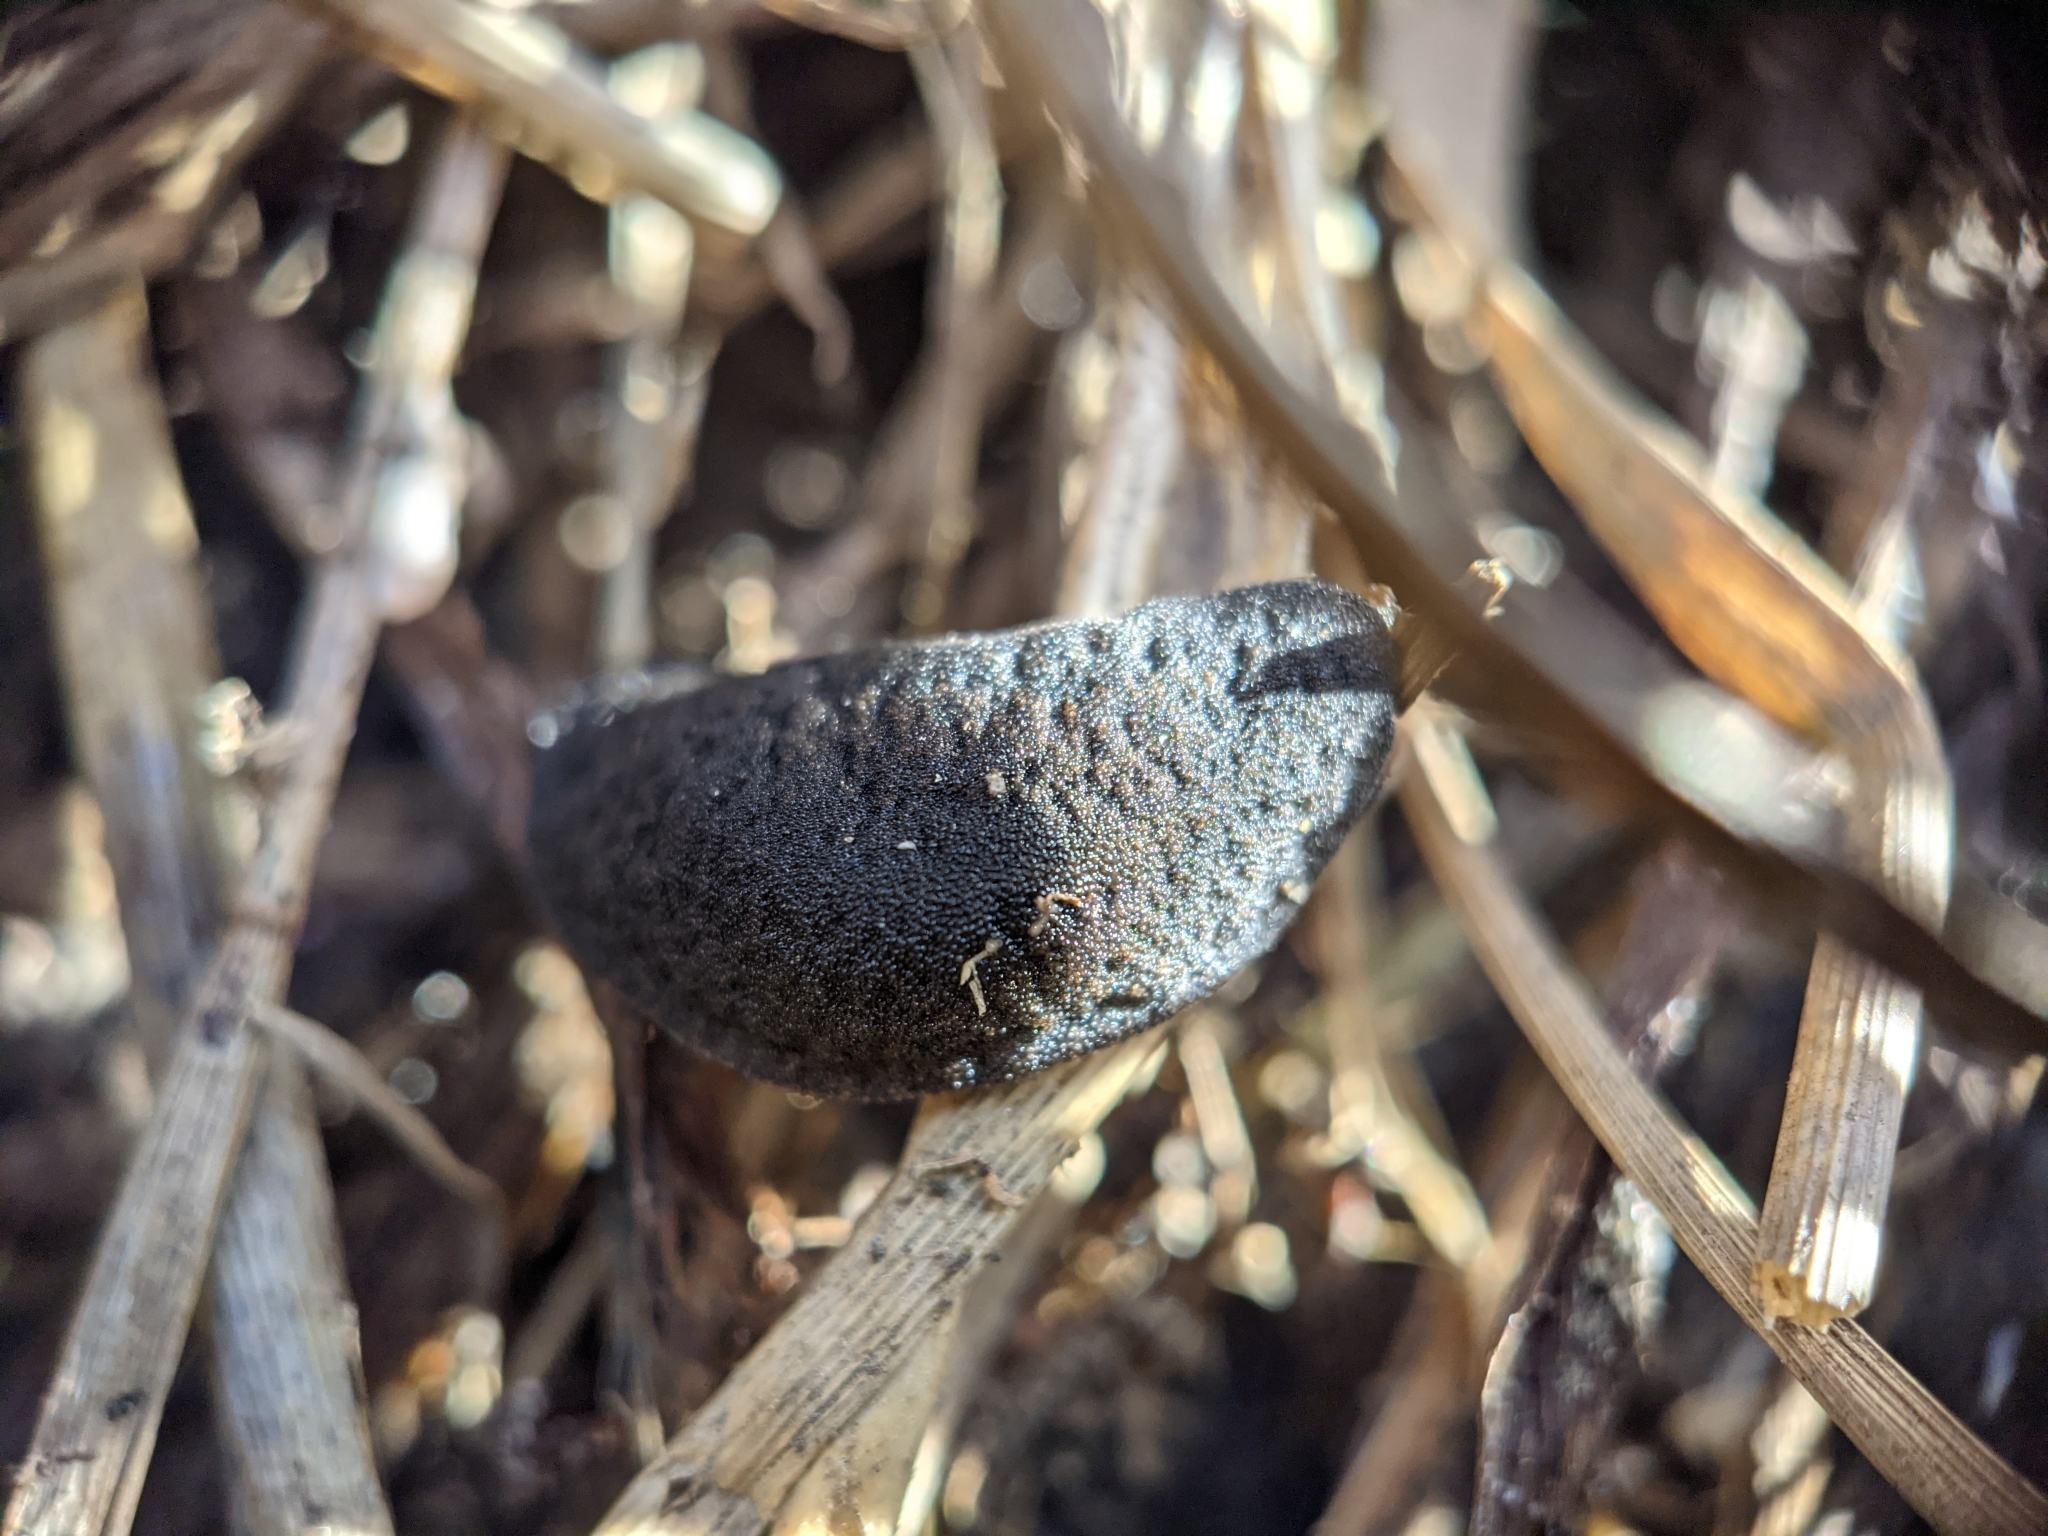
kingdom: Animalia
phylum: Mollusca
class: Gastropoda
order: Systellommatophora
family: Veronicellidae
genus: Belocaulus
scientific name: Belocaulus angustipes
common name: Black velvet leatherleaf slug
